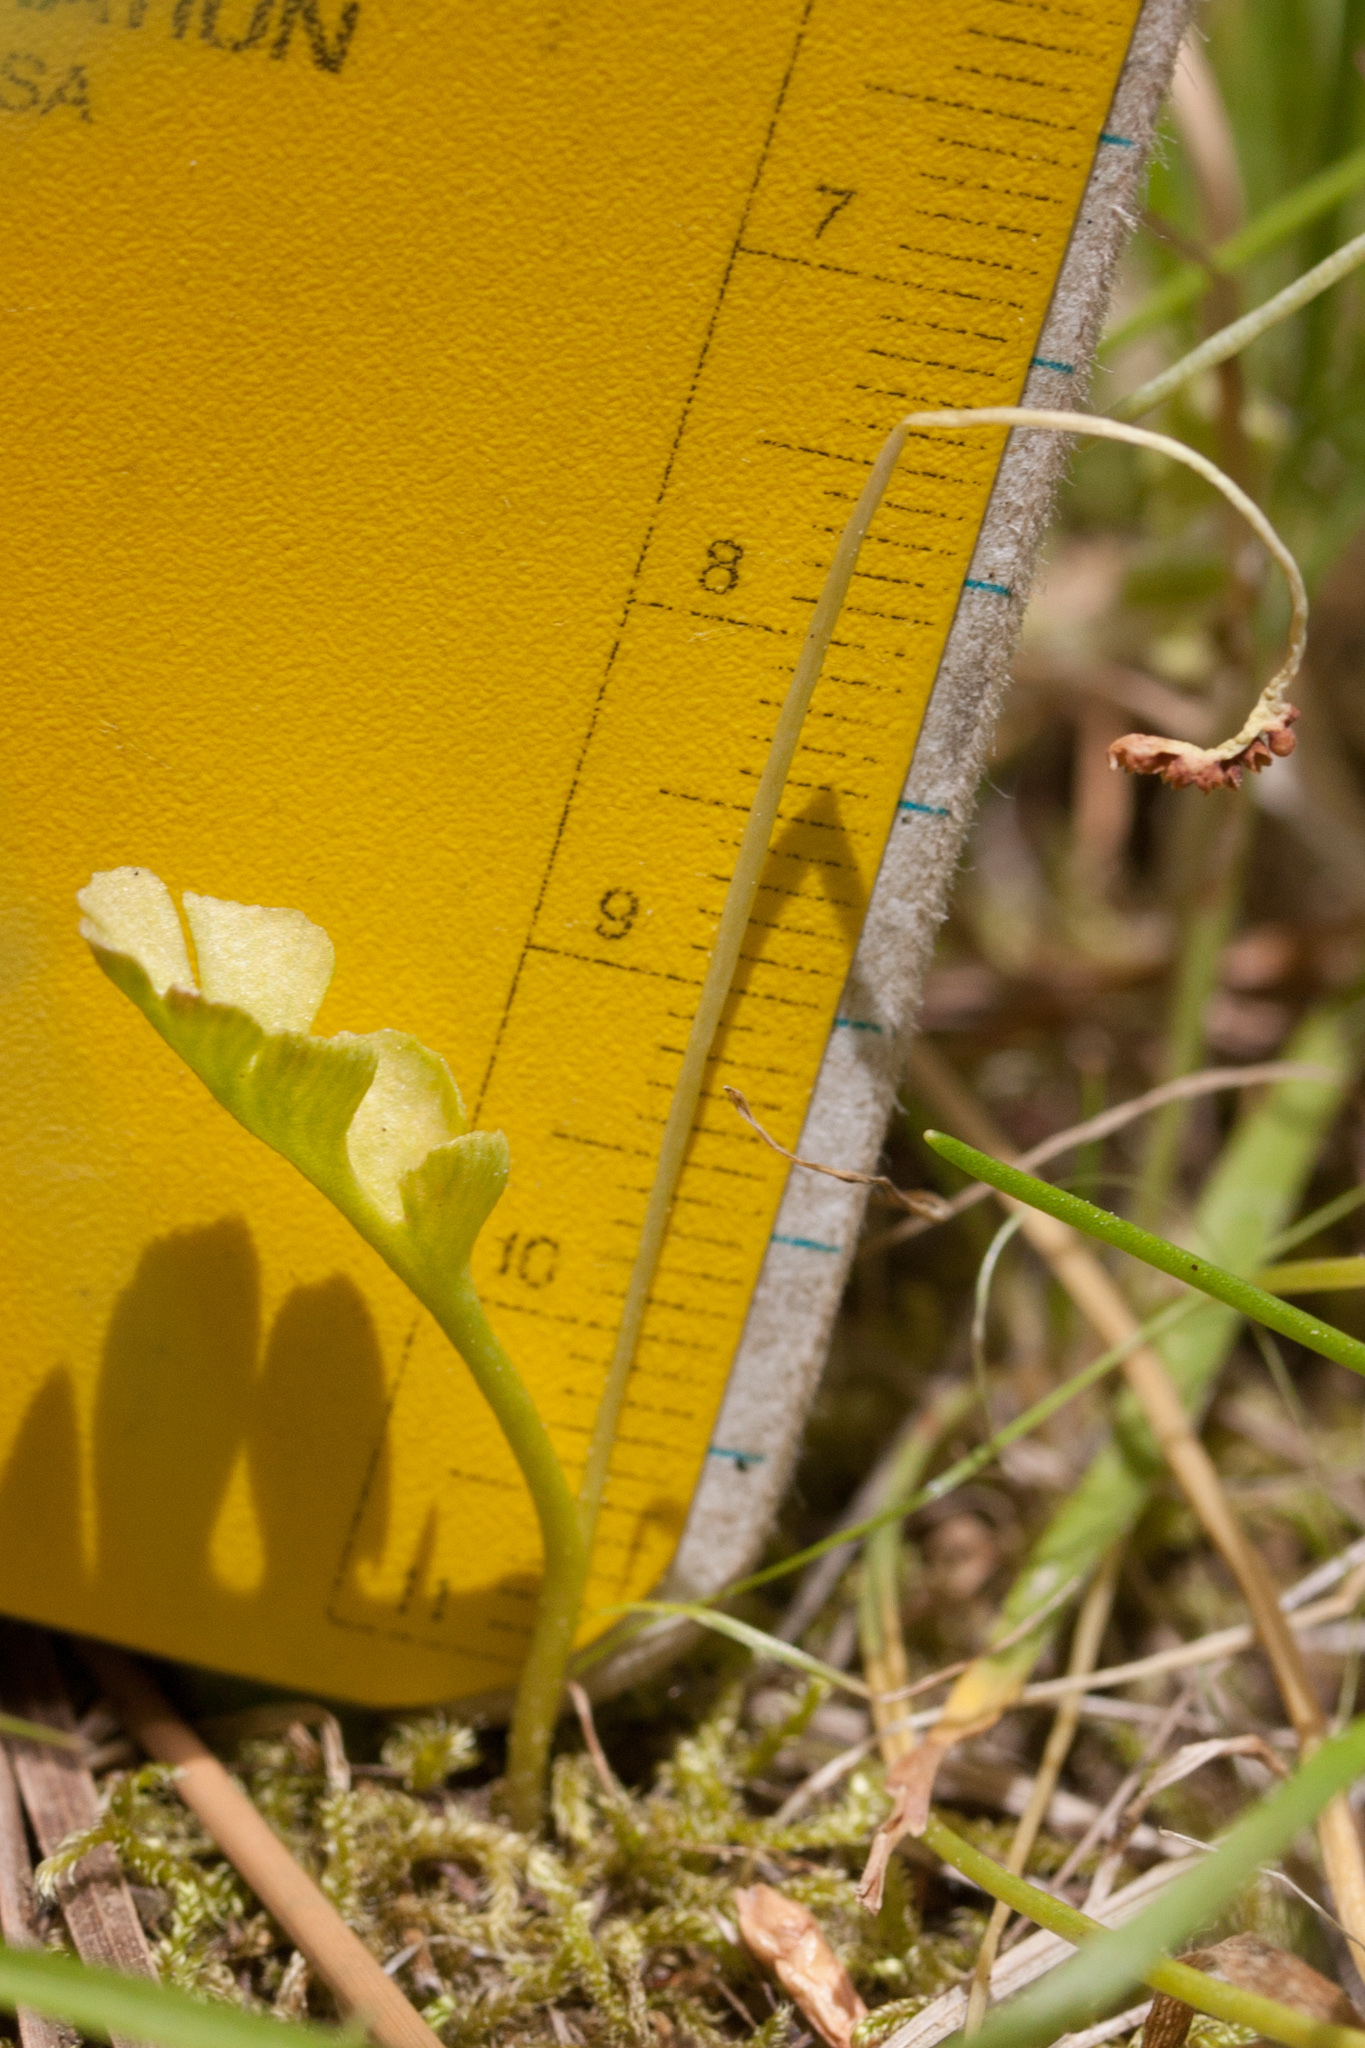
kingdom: Plantae
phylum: Tracheophyta
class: Polypodiopsida
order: Ophioglossales
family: Ophioglossaceae
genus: Botrychium
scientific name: Botrychium simplex
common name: Least moonwort
